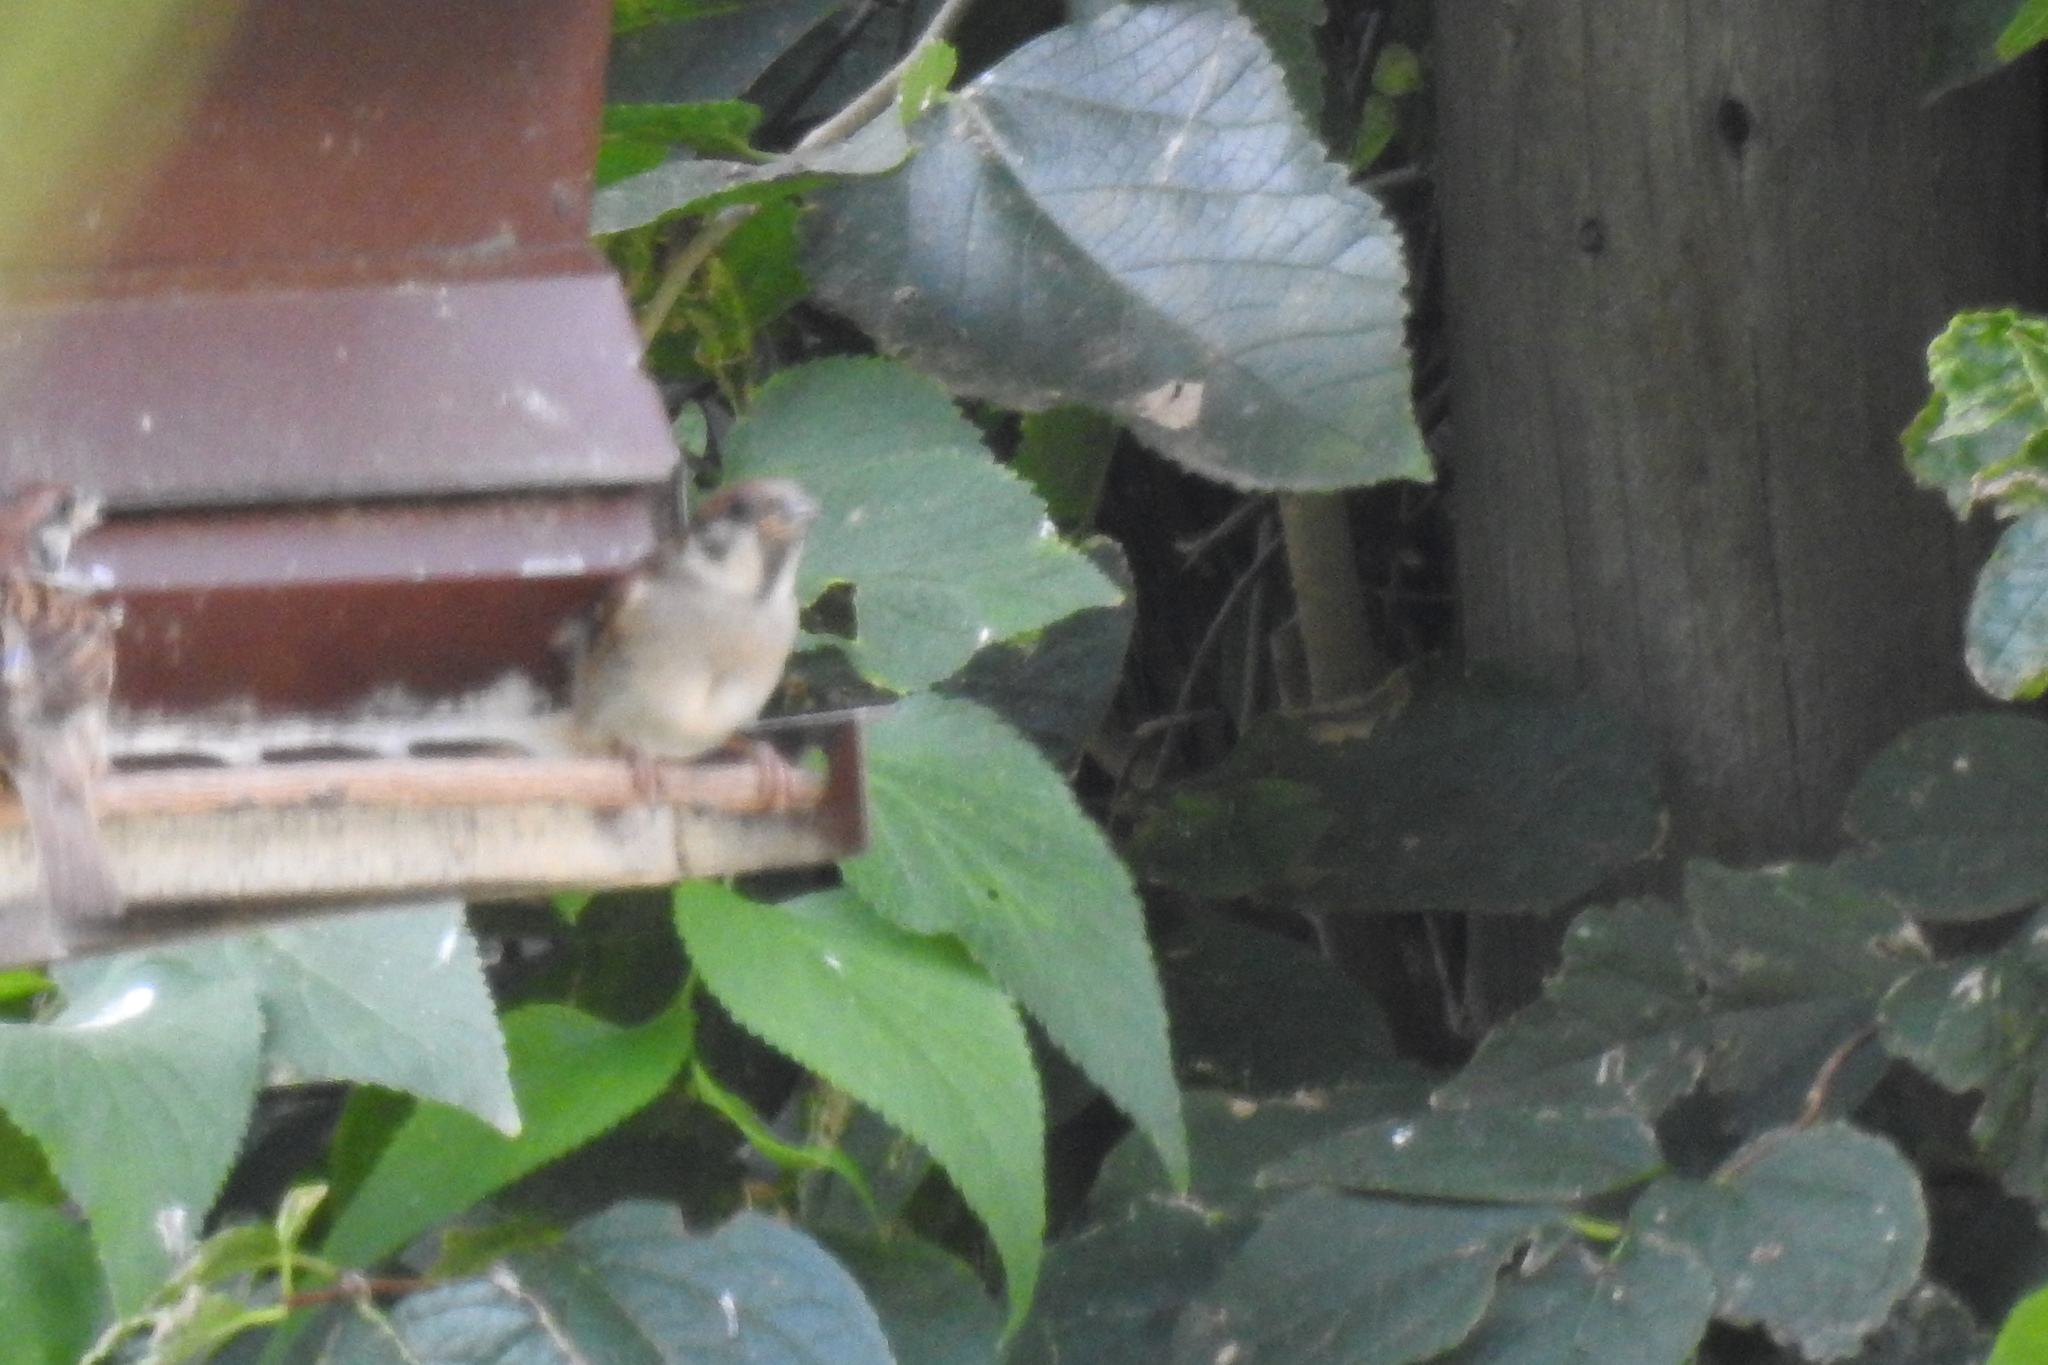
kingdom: Animalia
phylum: Chordata
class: Aves
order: Passeriformes
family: Passeridae
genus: Passer
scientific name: Passer montanus
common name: Eurasian tree sparrow
